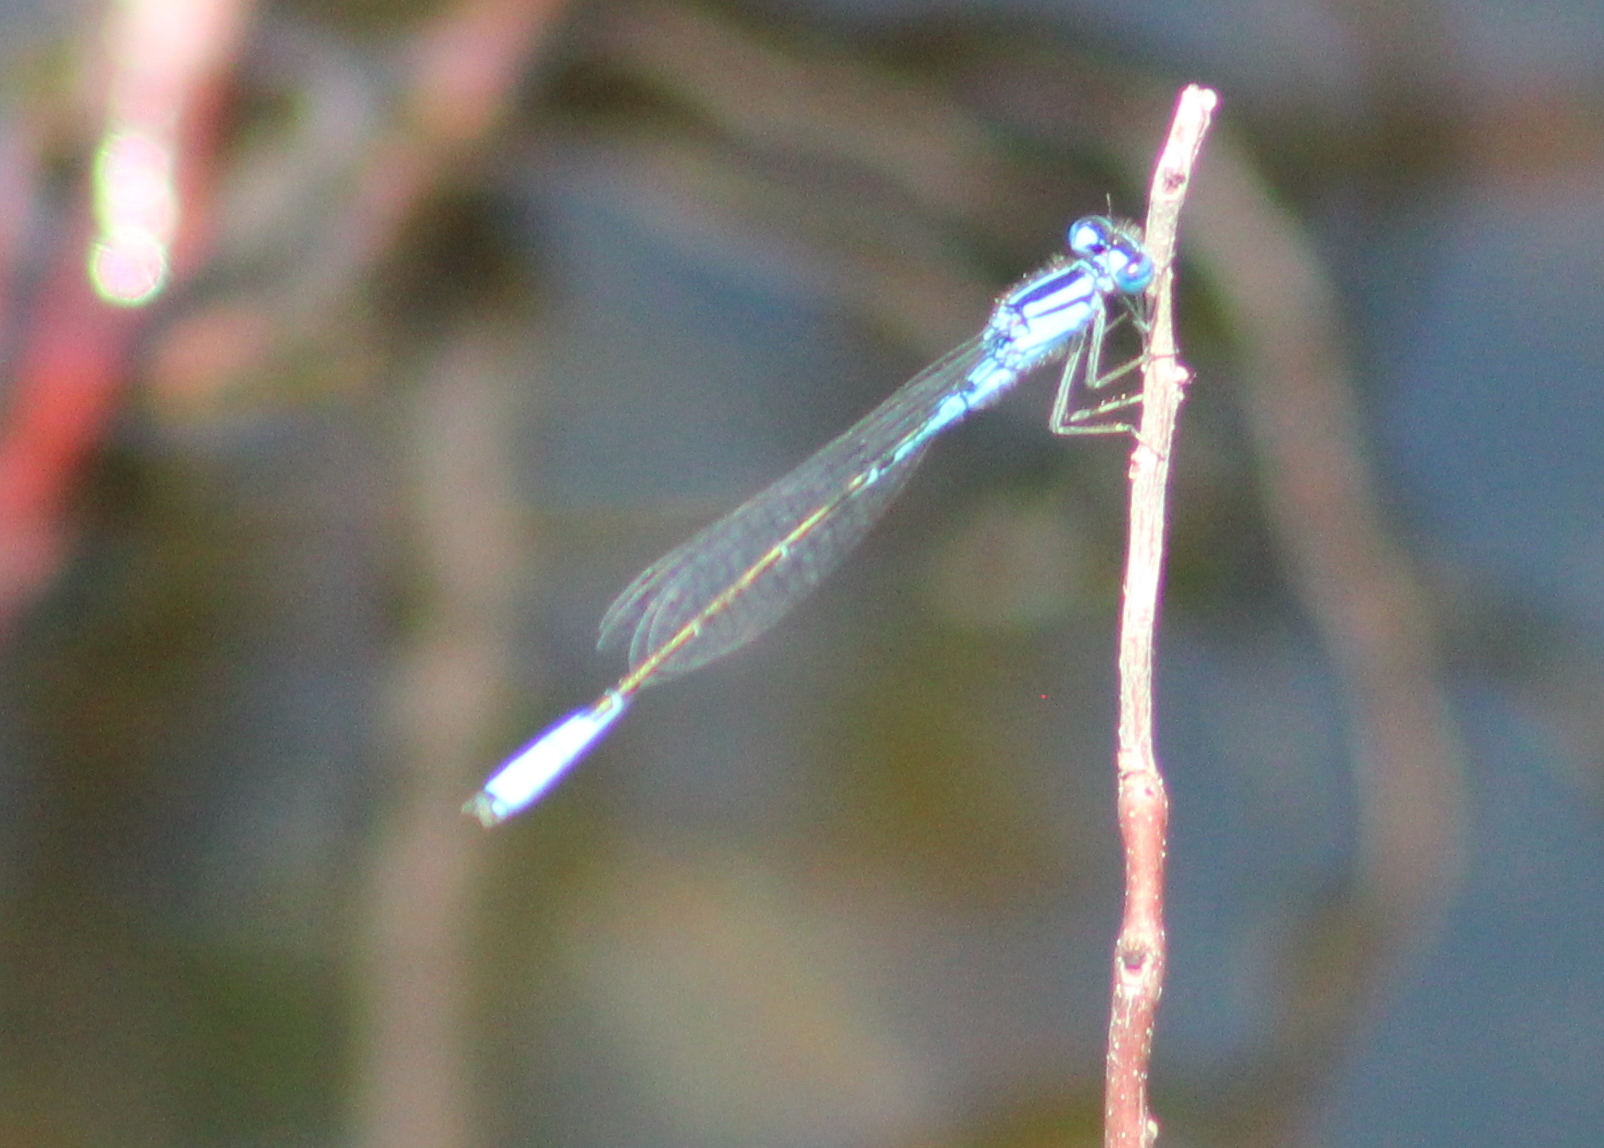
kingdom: Animalia
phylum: Arthropoda
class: Insecta
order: Odonata
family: Coenagrionidae
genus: Enallagma
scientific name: Enallagma aspersum
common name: Azure bluet
